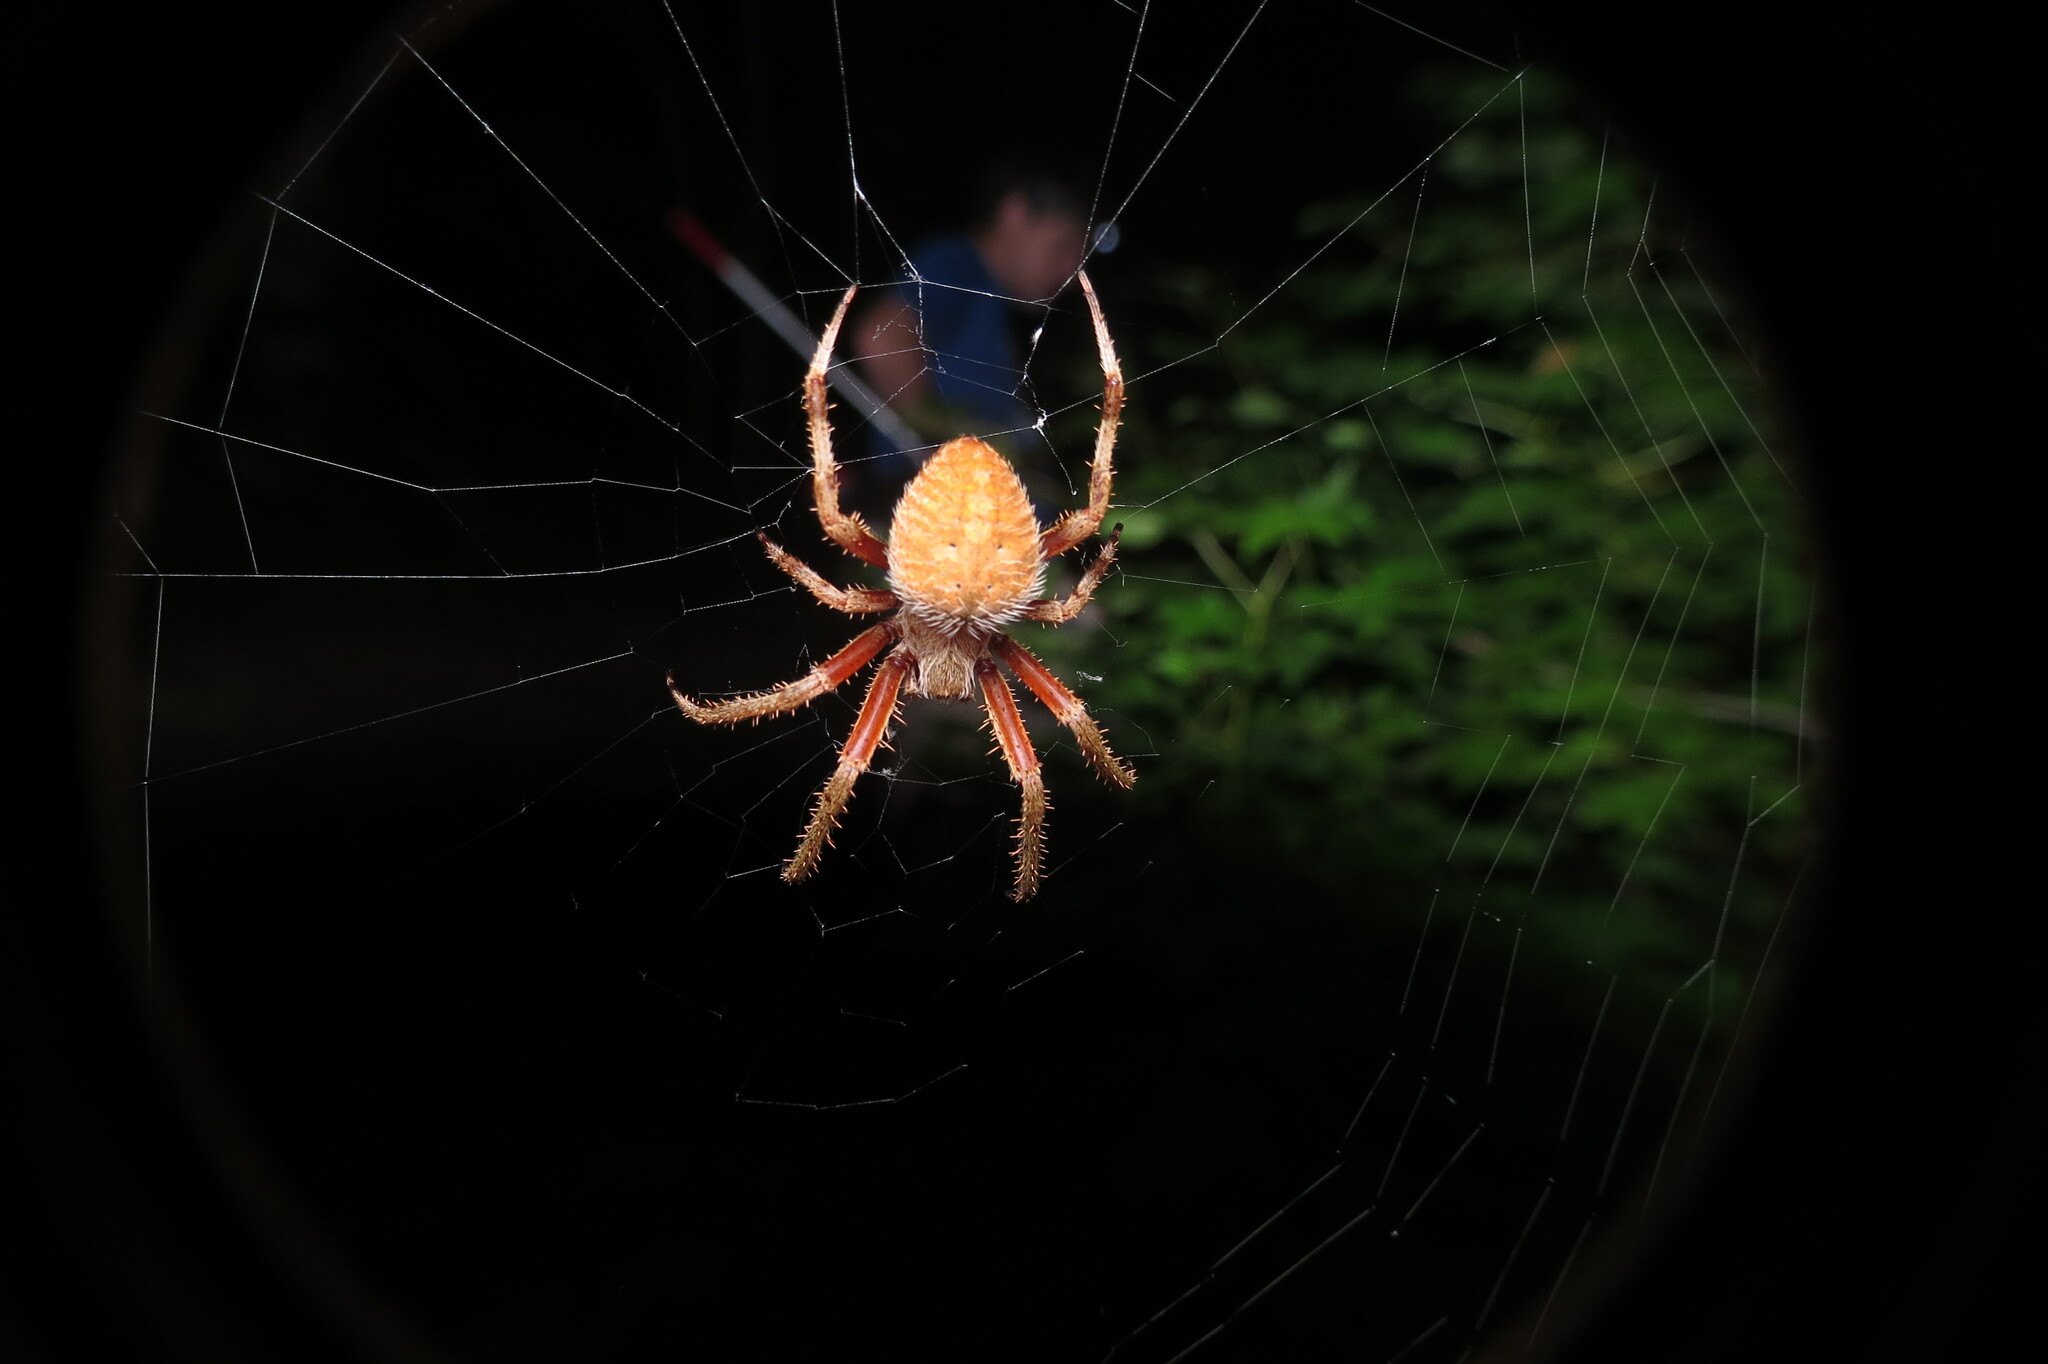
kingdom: Animalia
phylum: Arthropoda
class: Arachnida
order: Araneae
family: Araneidae
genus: Neoscona
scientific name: Neoscona crucifera
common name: Spotted orbweaver
